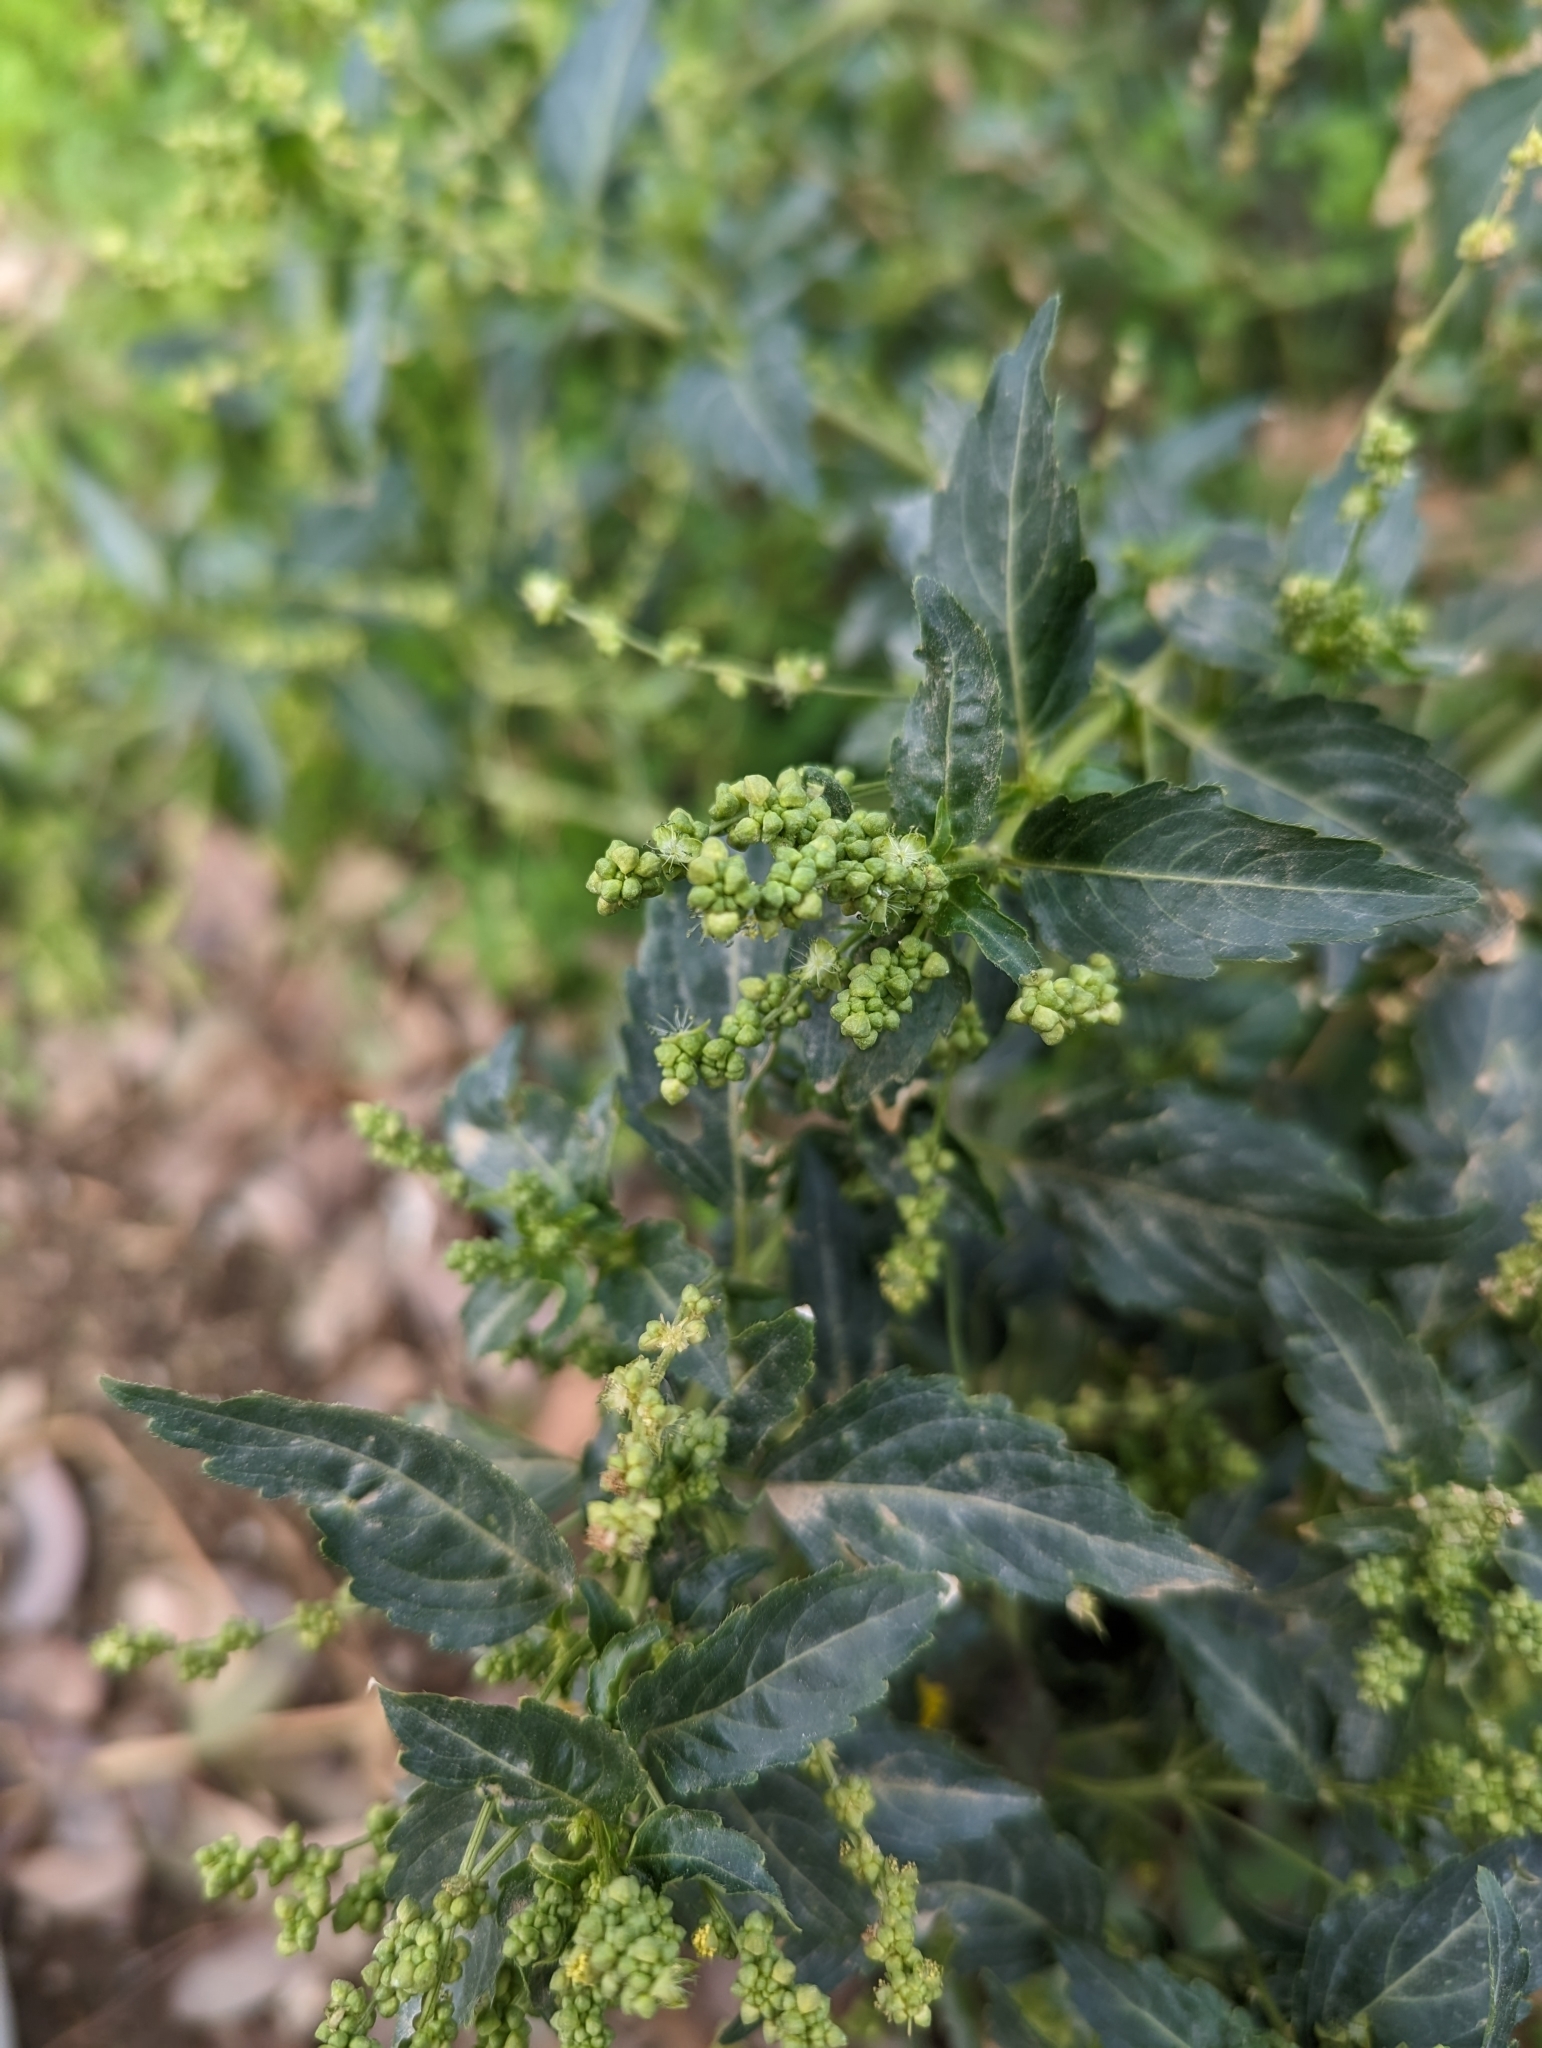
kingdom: Plantae
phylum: Tracheophyta
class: Magnoliopsida
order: Malpighiales
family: Euphorbiaceae
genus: Mercurialis
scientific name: Mercurialis annua
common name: Annual mercury
